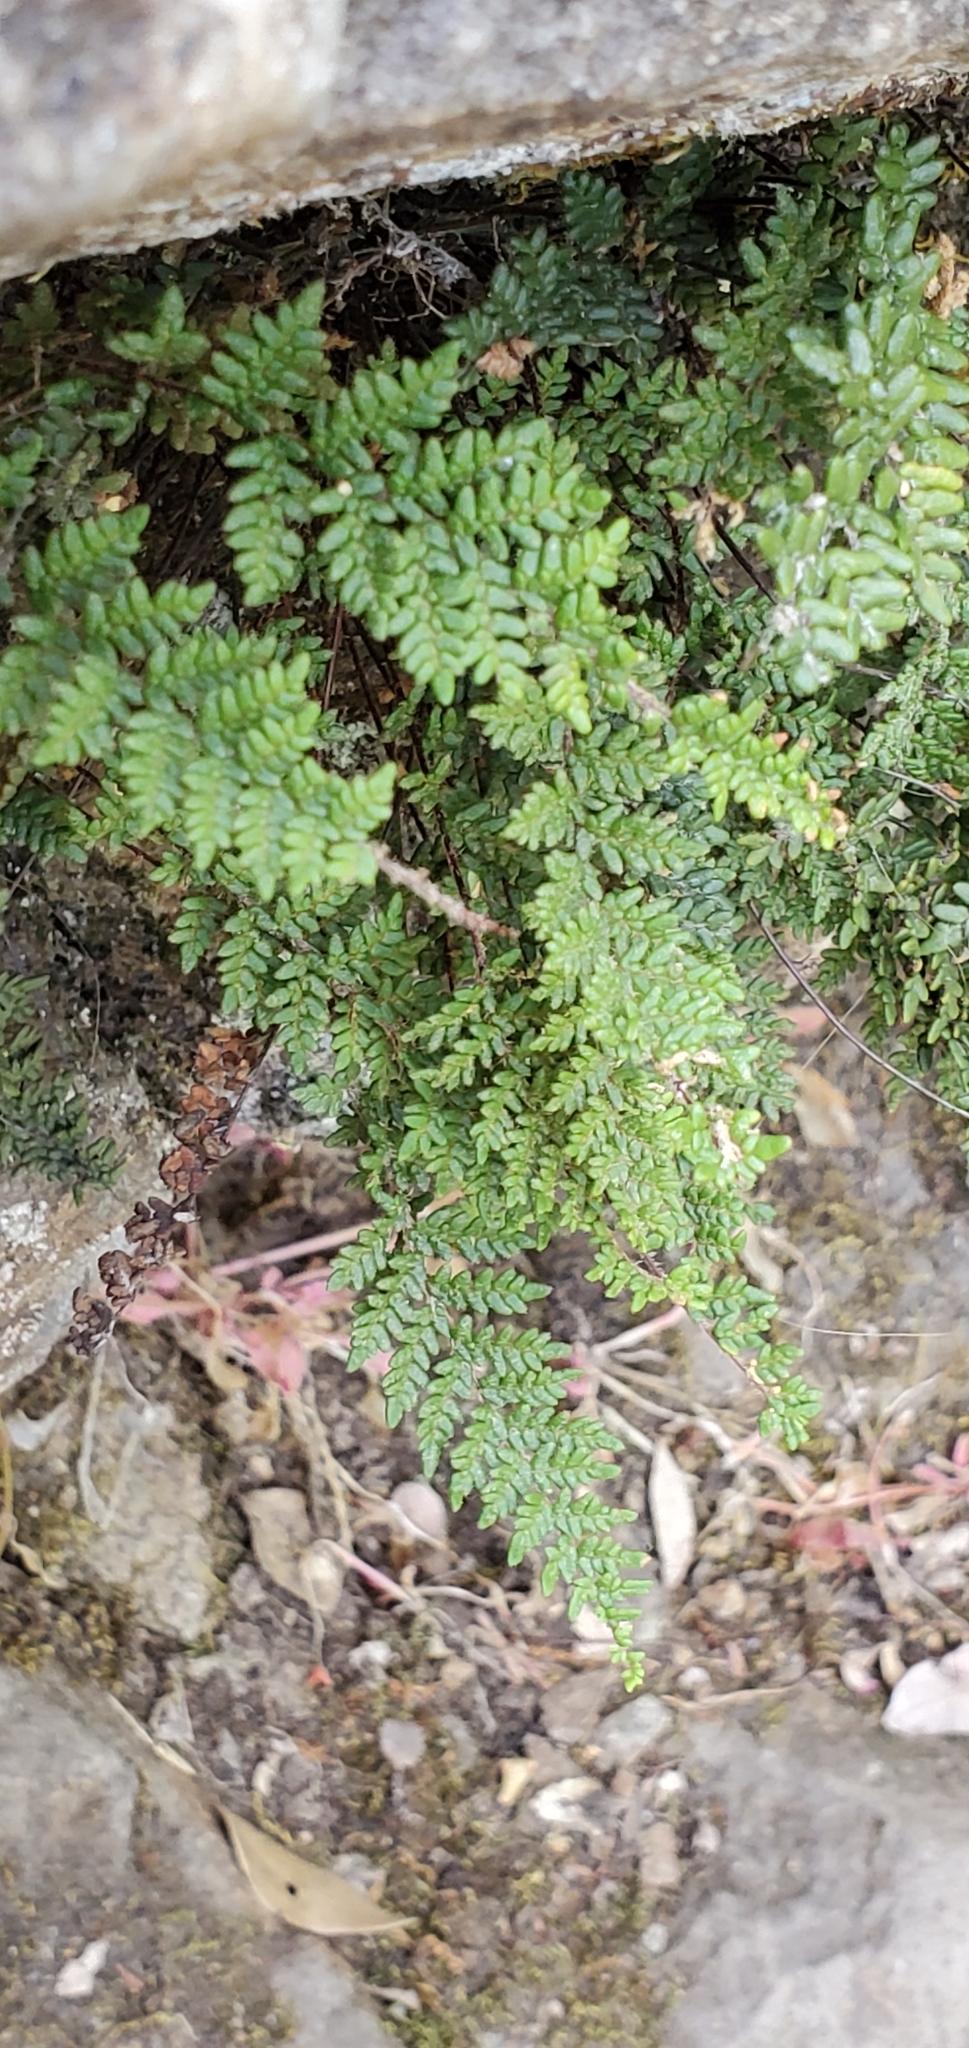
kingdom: Plantae
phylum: Tracheophyta
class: Polypodiopsida
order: Polypodiales
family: Pteridaceae
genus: Myriopteris
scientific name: Myriopteris gracillima
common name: Lace fern
